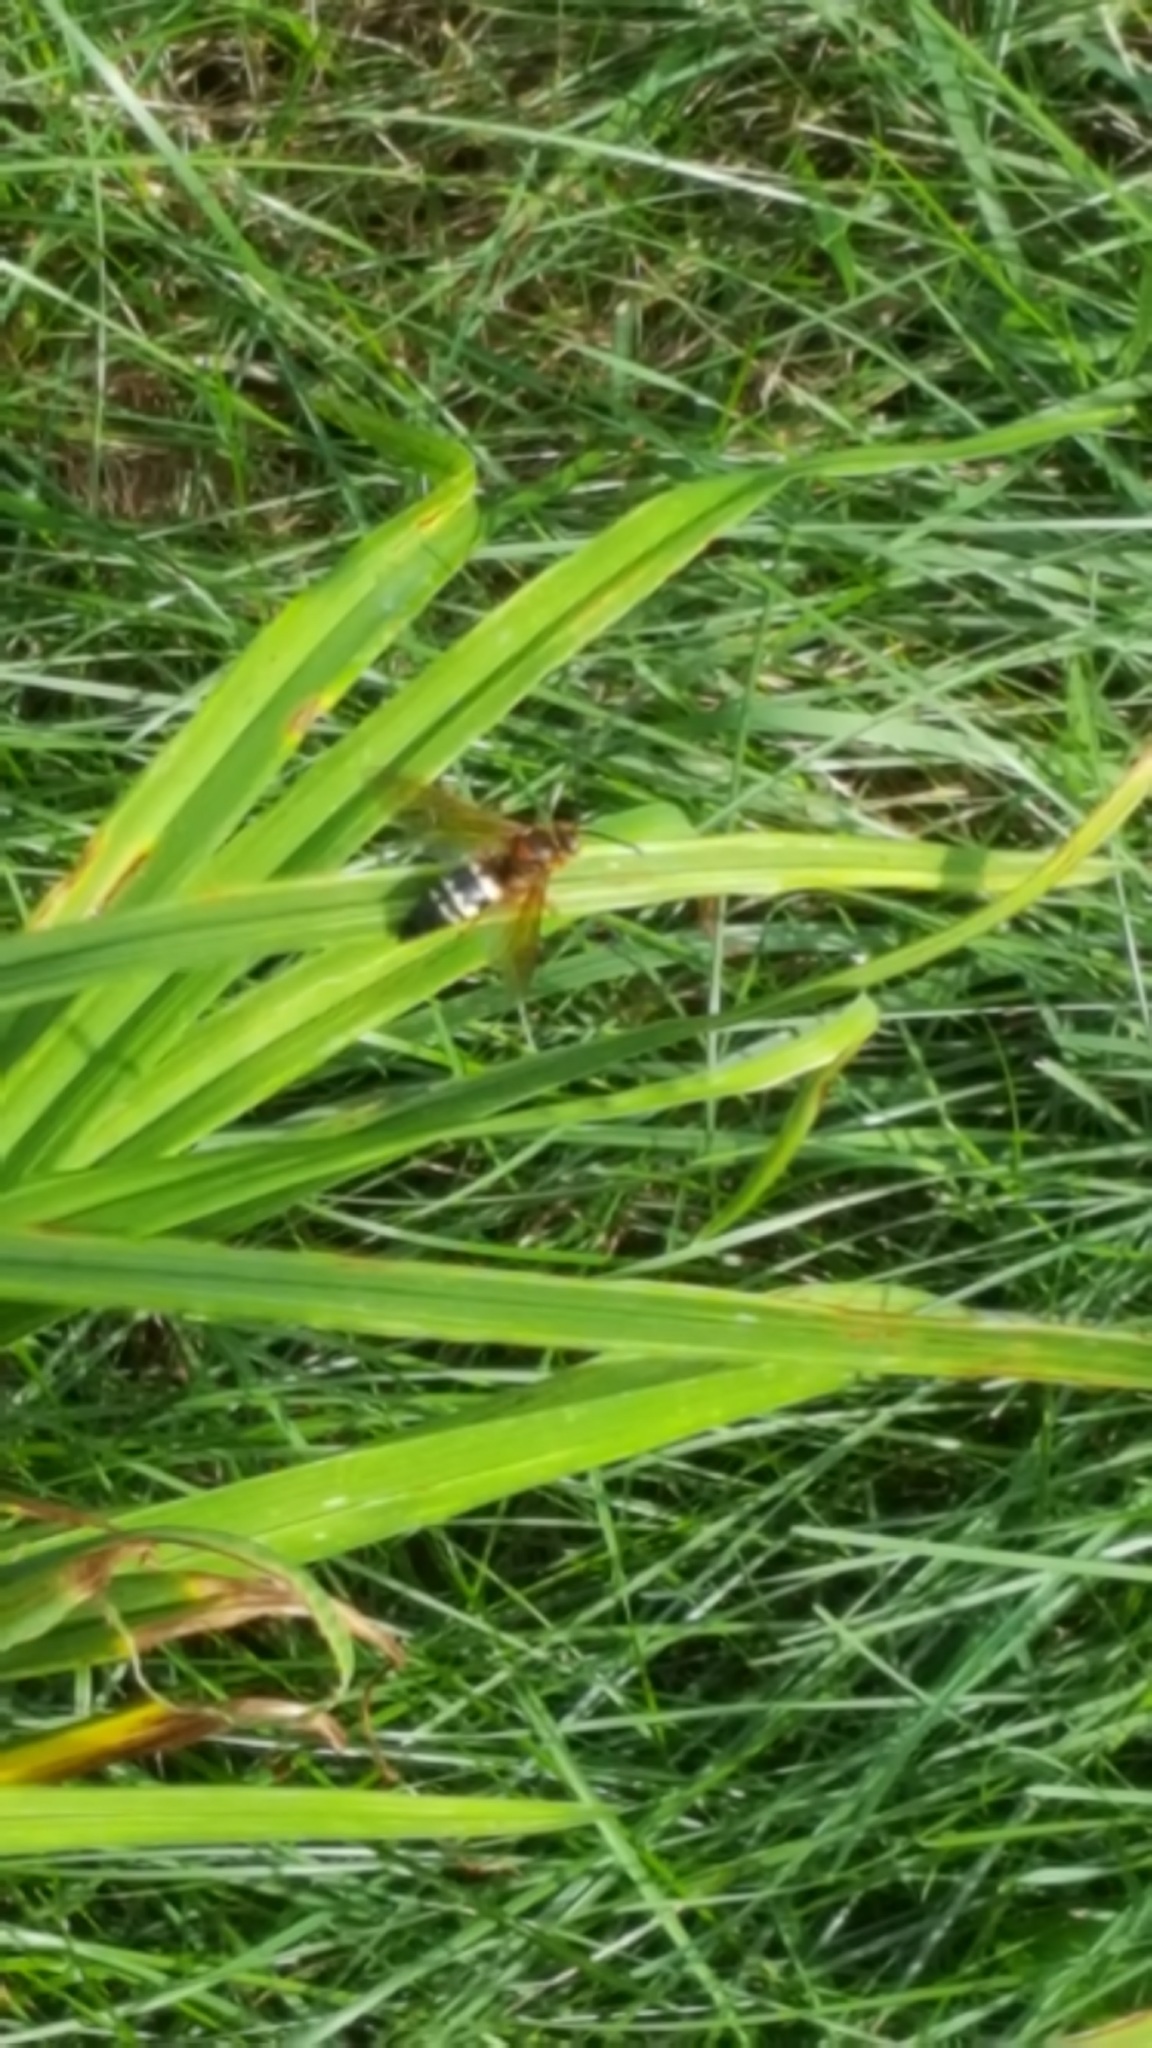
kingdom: Animalia
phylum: Arthropoda
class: Insecta
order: Hymenoptera
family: Crabronidae
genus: Sphecius
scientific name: Sphecius speciosus
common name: Cicada killer
